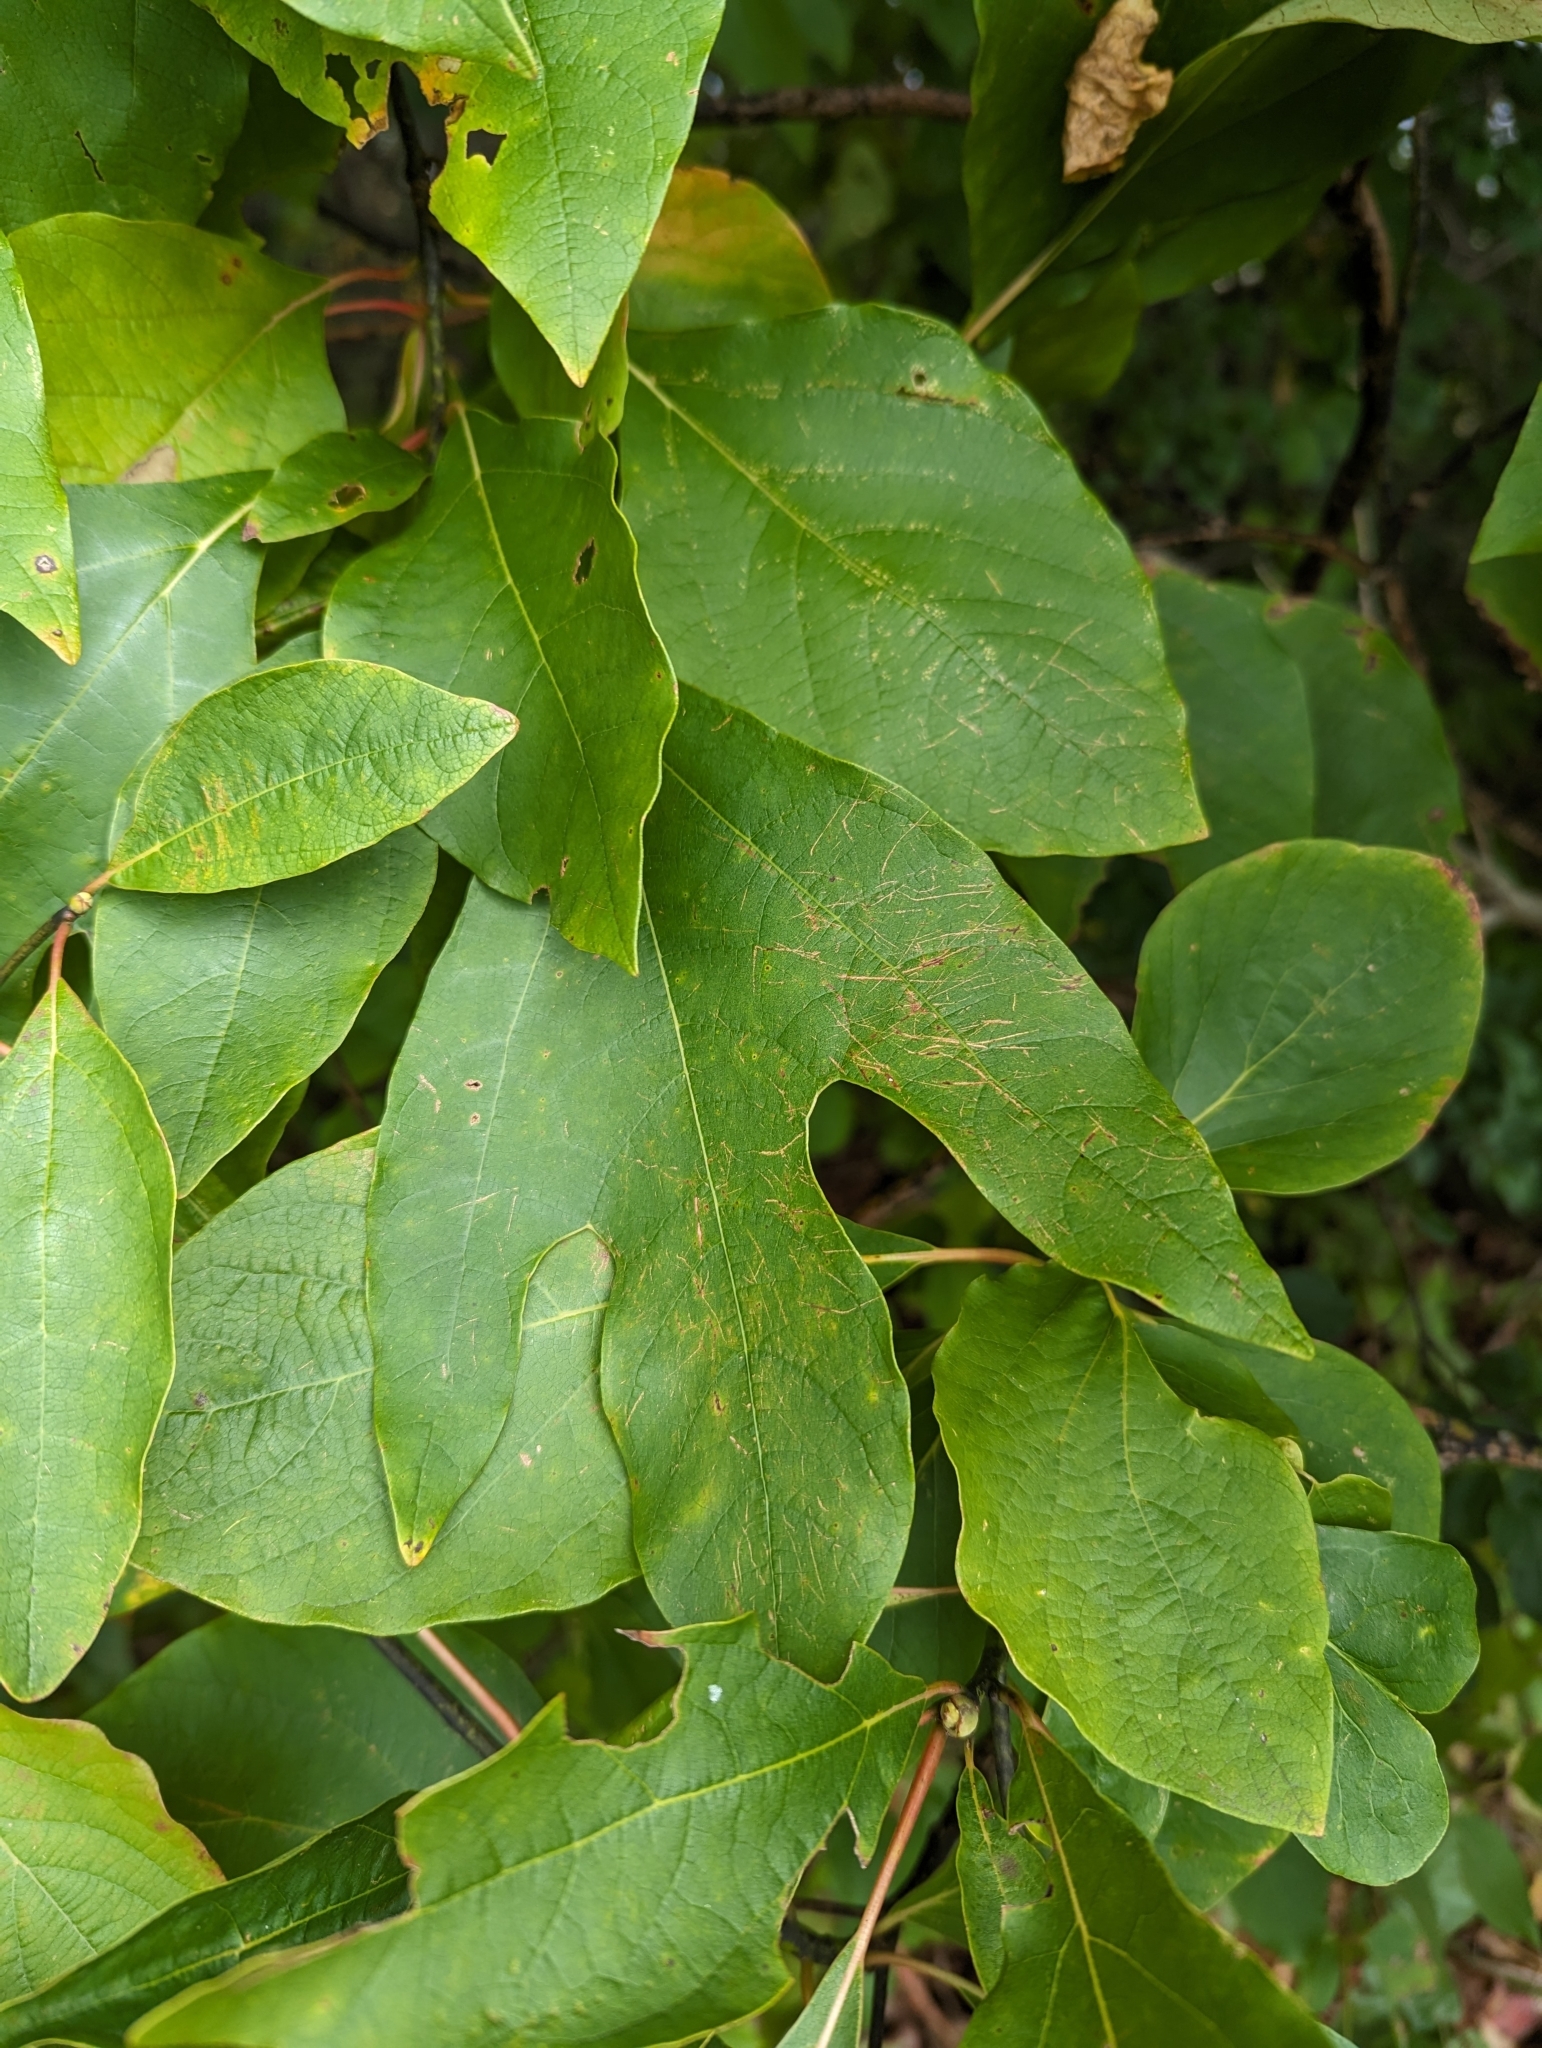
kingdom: Plantae
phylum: Tracheophyta
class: Magnoliopsida
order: Laurales
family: Lauraceae
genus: Sassafras
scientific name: Sassafras albidum
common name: Sassafras
